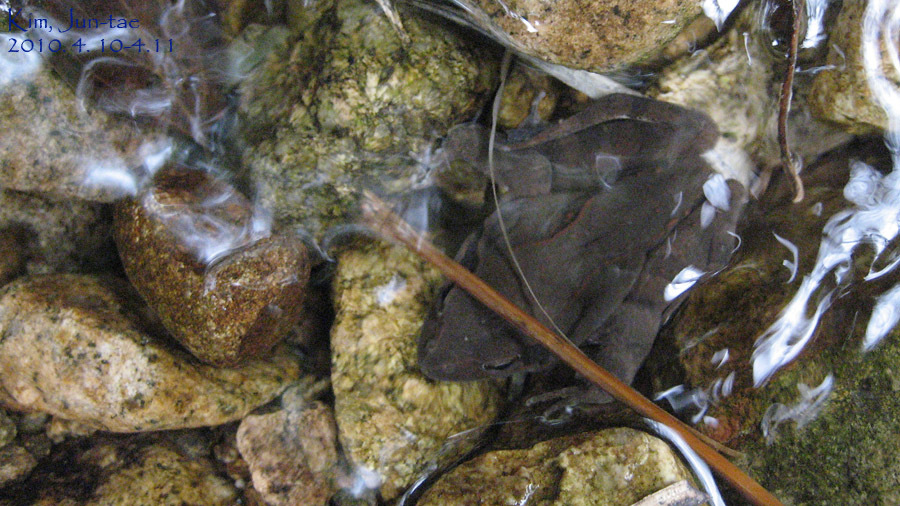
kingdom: Animalia
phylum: Chordata
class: Amphibia
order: Anura
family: Ranidae
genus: Rana
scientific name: Rana uenoi
